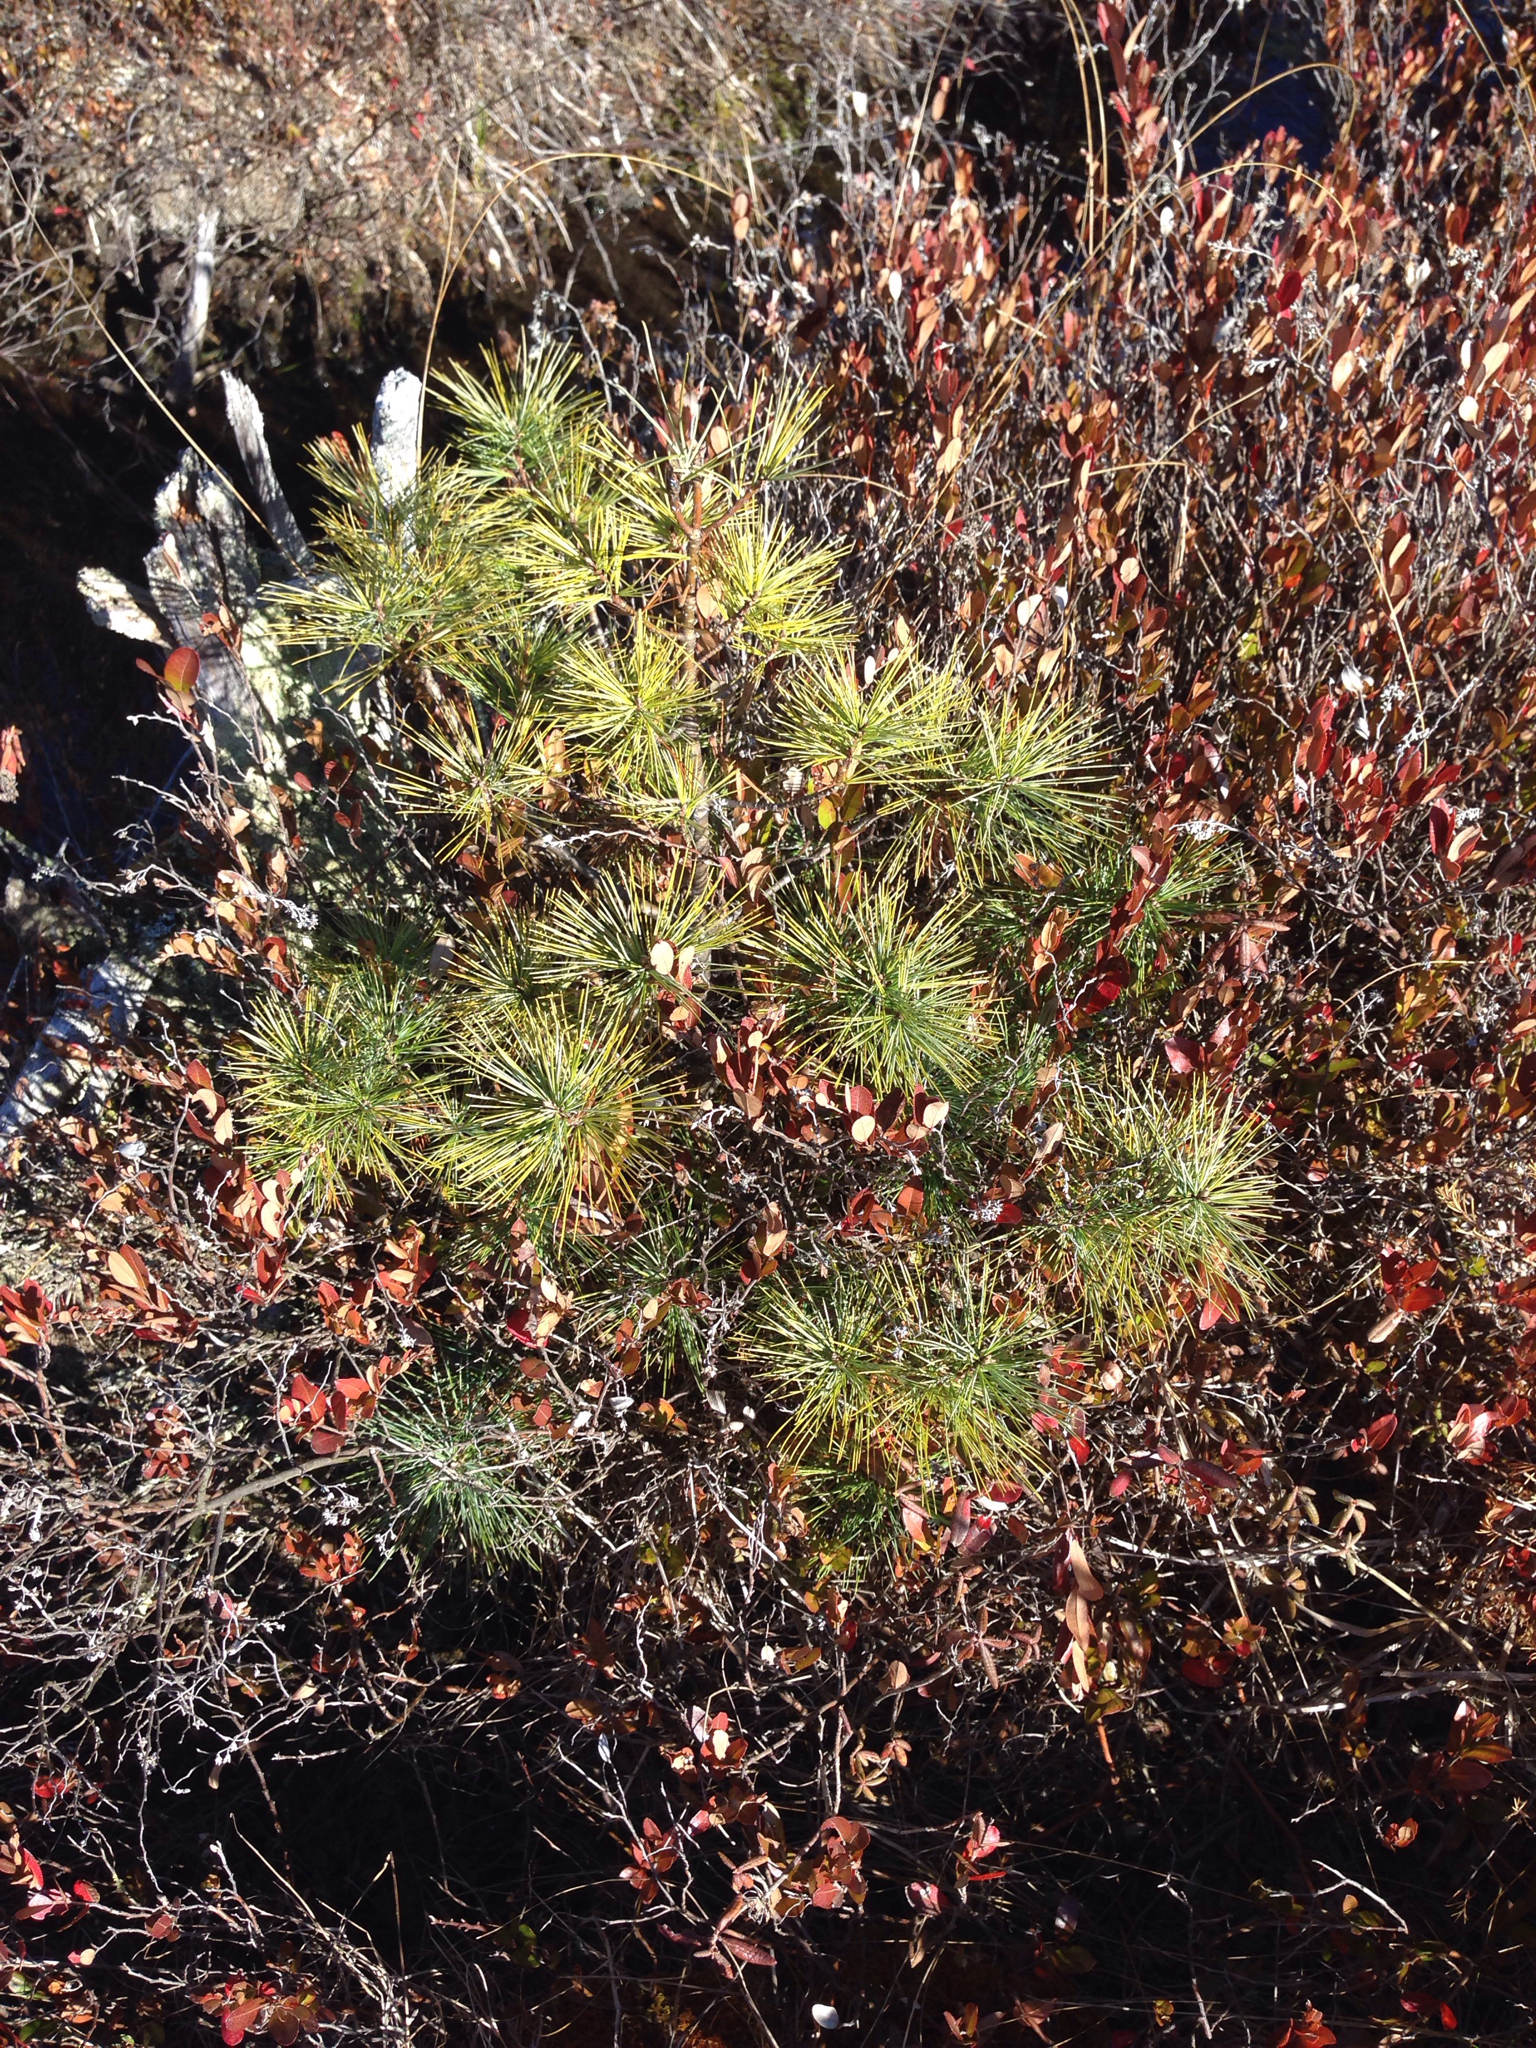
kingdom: Plantae
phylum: Tracheophyta
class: Pinopsida
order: Pinales
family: Pinaceae
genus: Pinus
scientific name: Pinus strobus
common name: Weymouth pine
